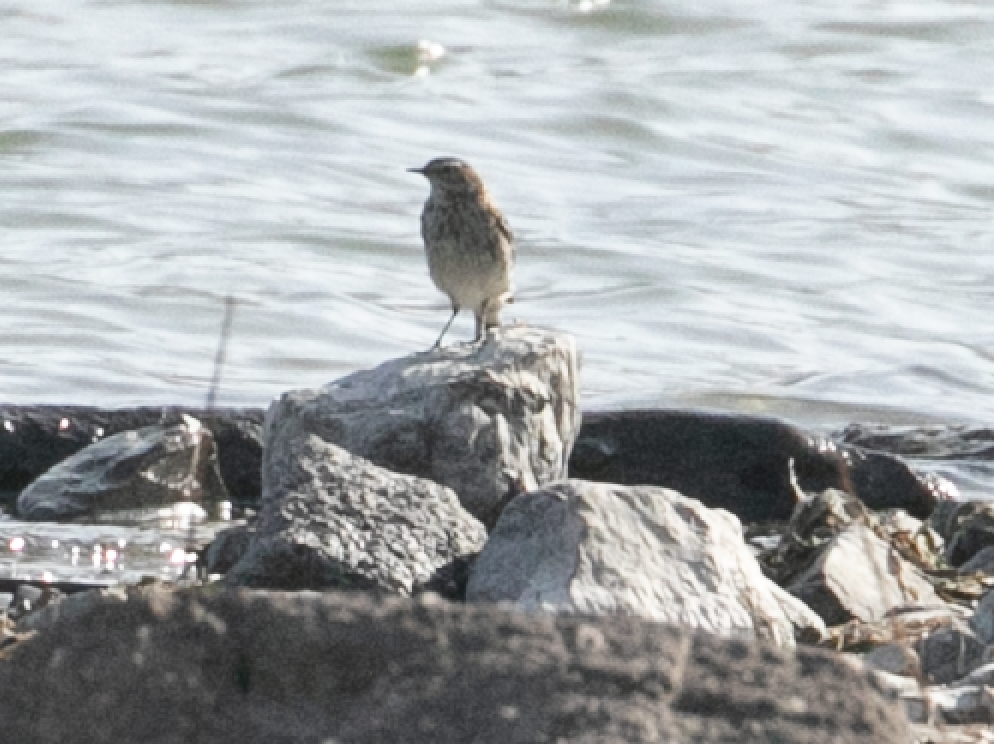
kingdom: Animalia
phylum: Chordata
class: Aves
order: Passeriformes
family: Motacillidae
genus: Anthus
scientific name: Anthus spinoletta
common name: Water pipit
